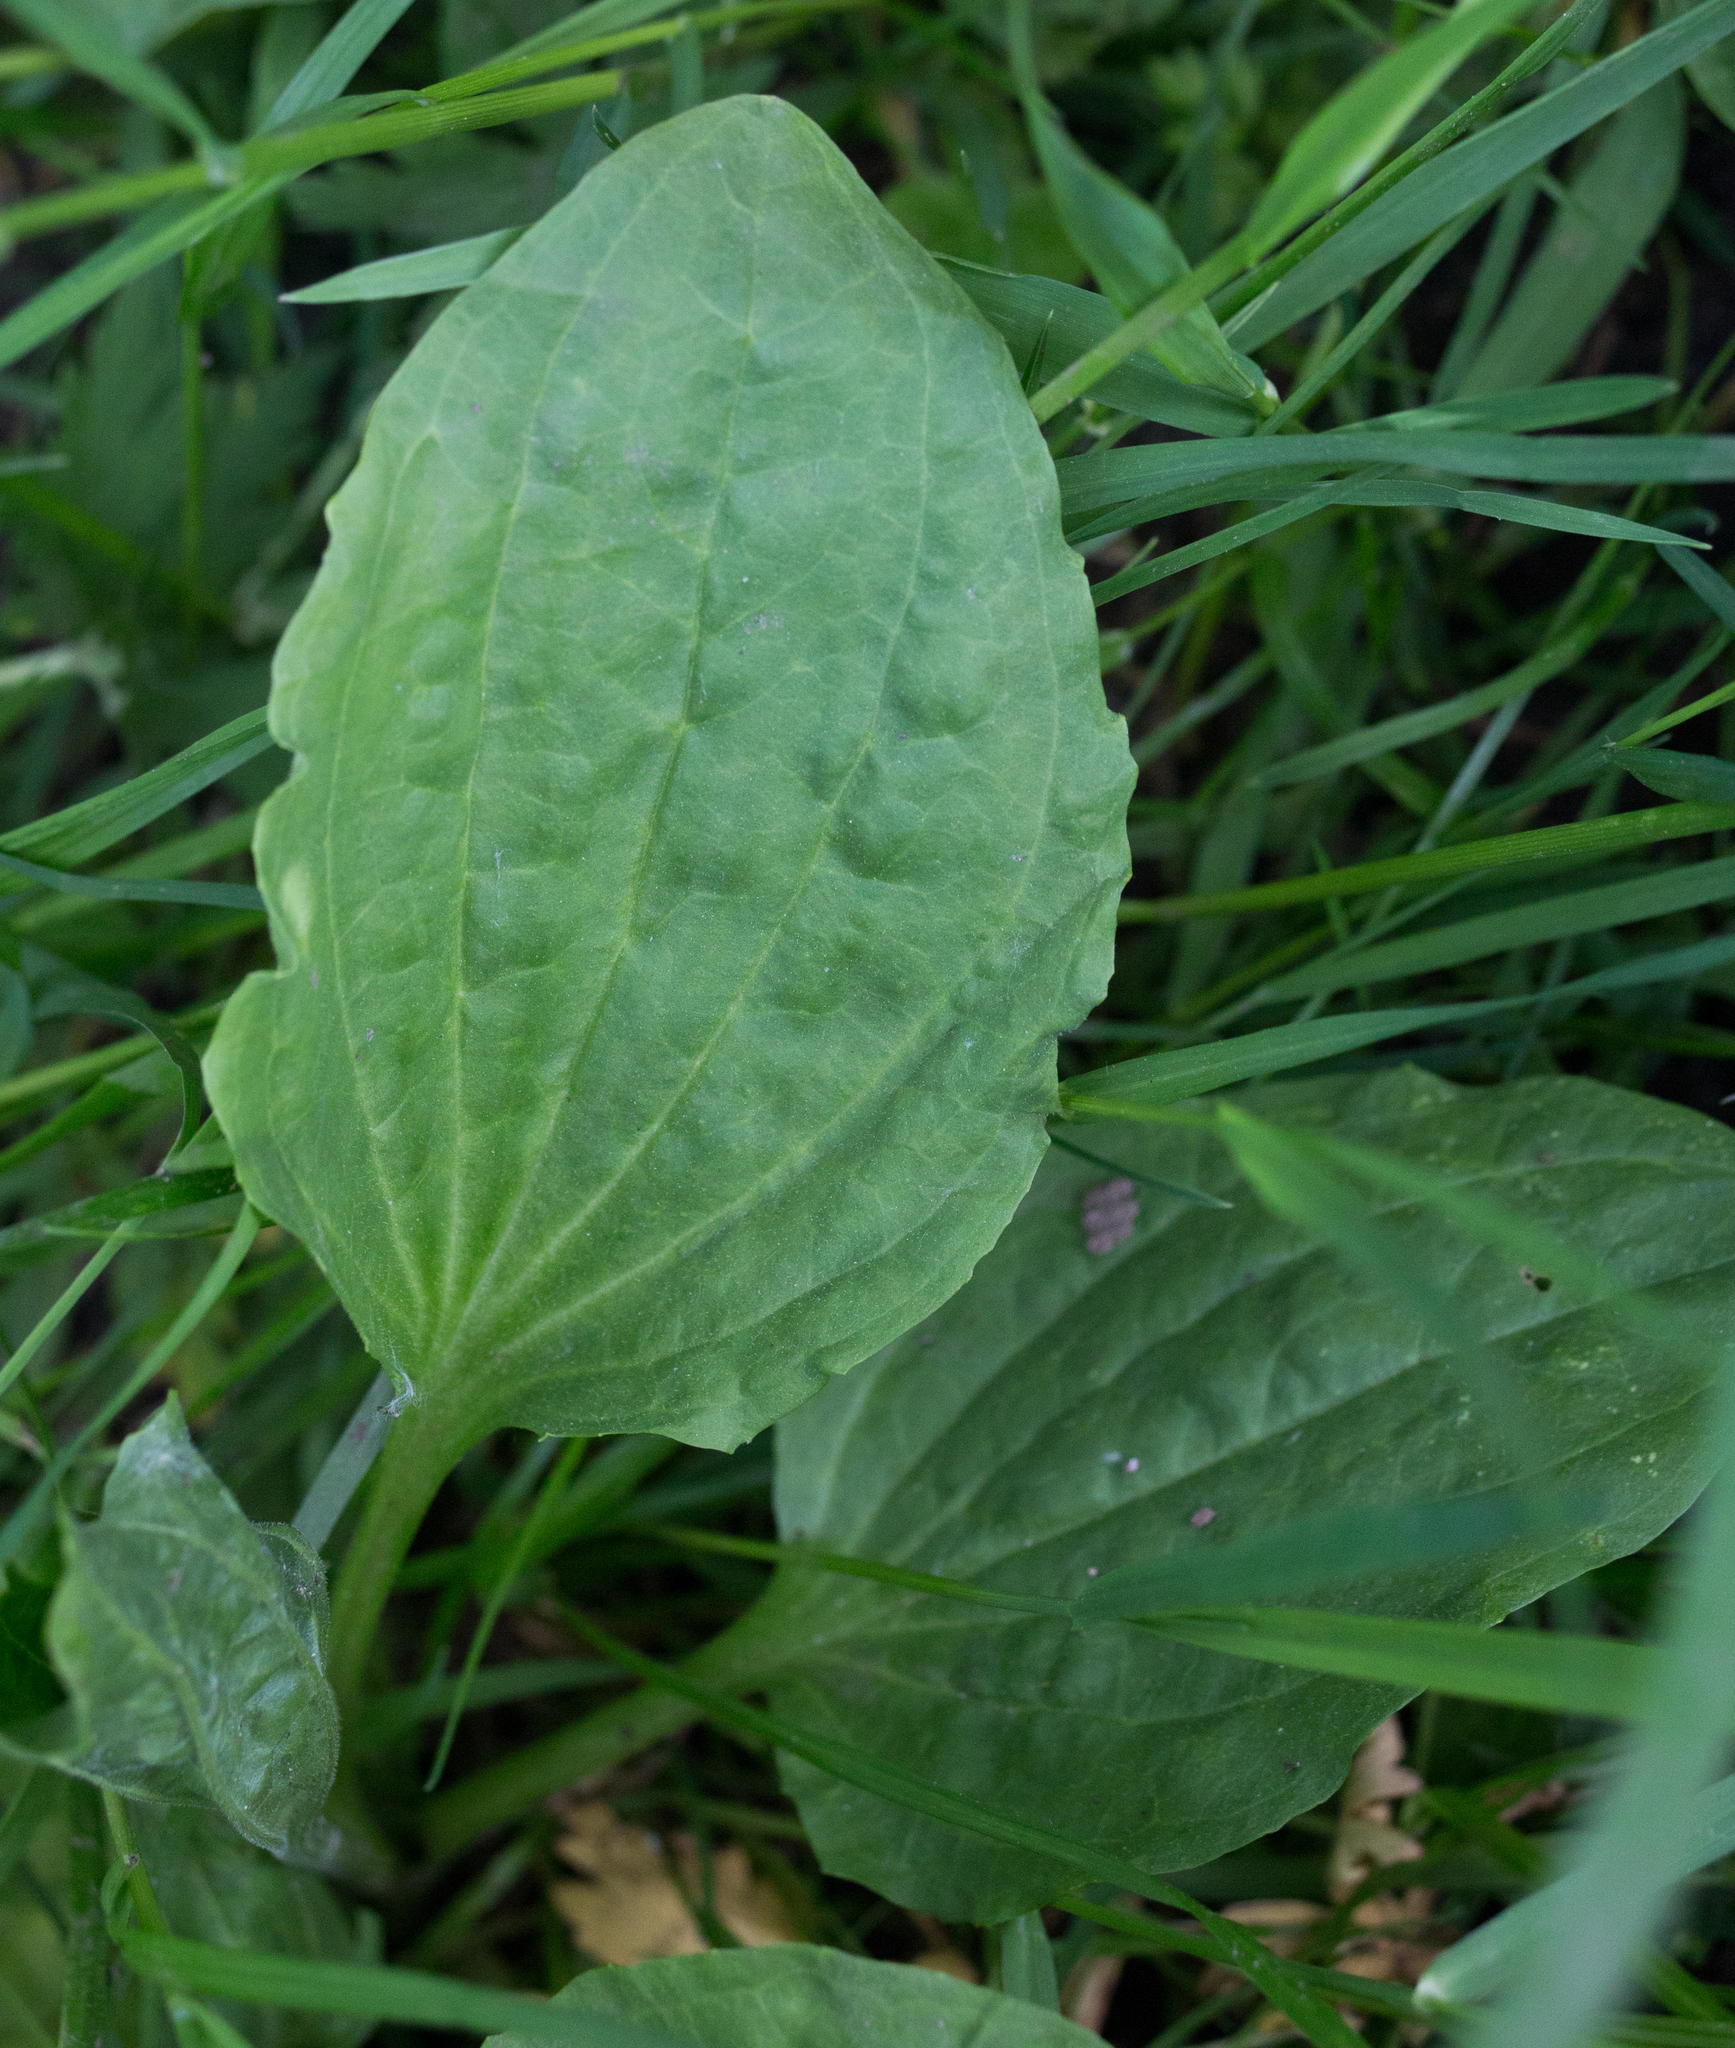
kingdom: Plantae
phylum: Tracheophyta
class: Magnoliopsida
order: Lamiales
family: Plantaginaceae
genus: Plantago
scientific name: Plantago major
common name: Common plantain
